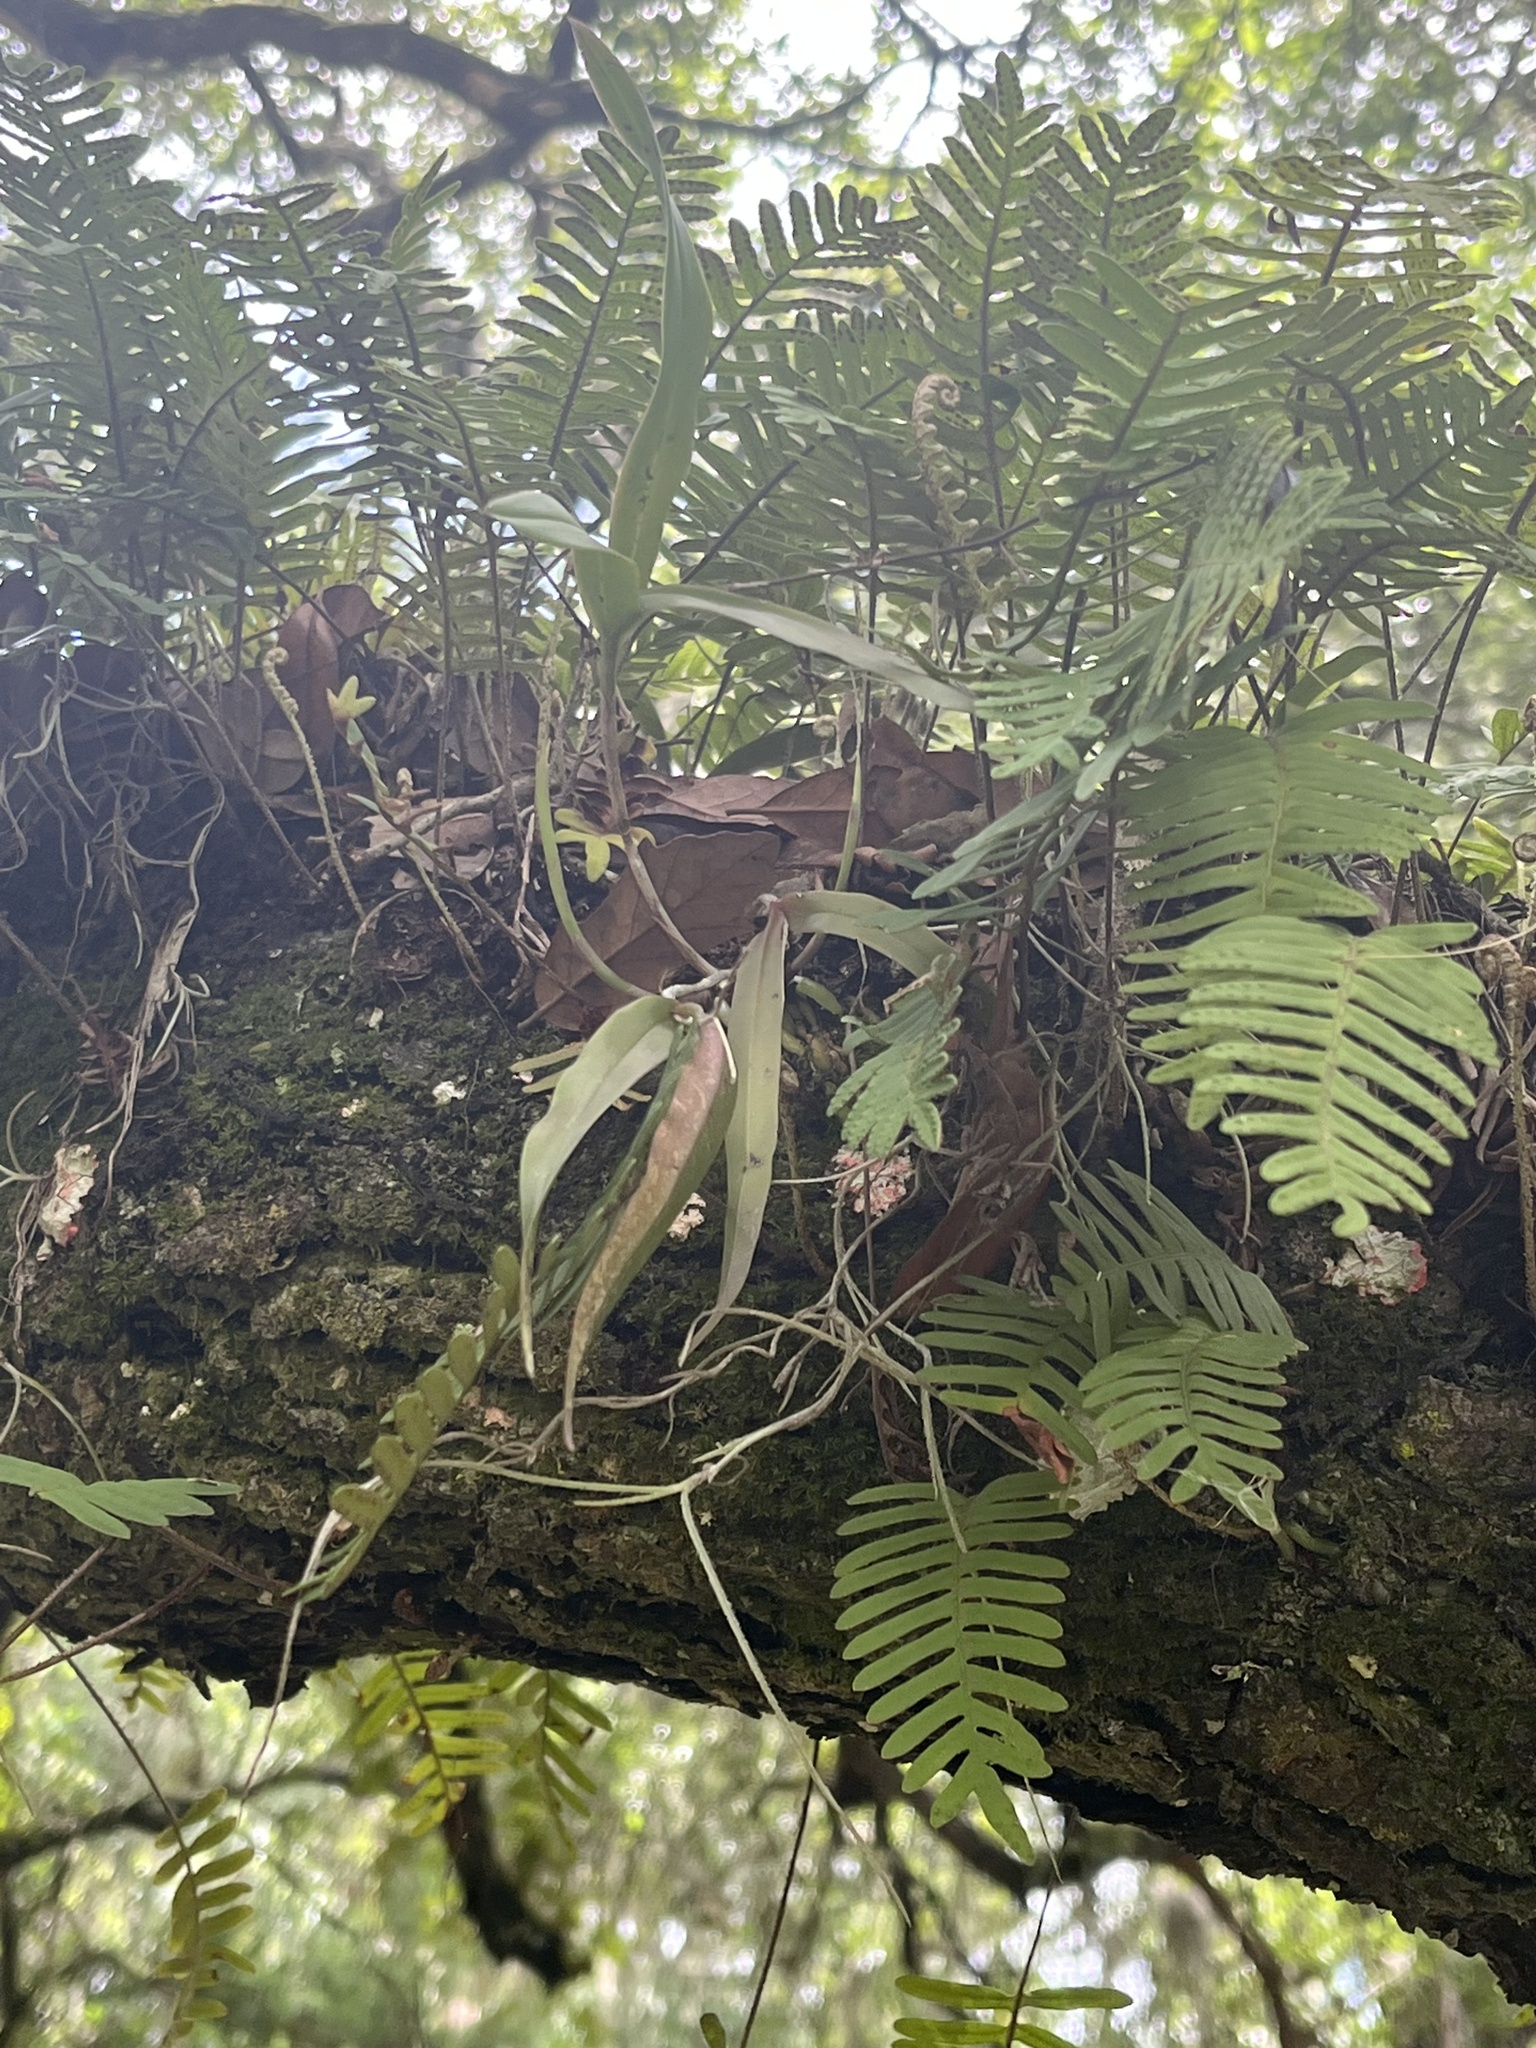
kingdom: Plantae
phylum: Tracheophyta
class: Liliopsida
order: Asparagales
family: Orchidaceae
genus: Epidendrum
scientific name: Epidendrum conopseum
